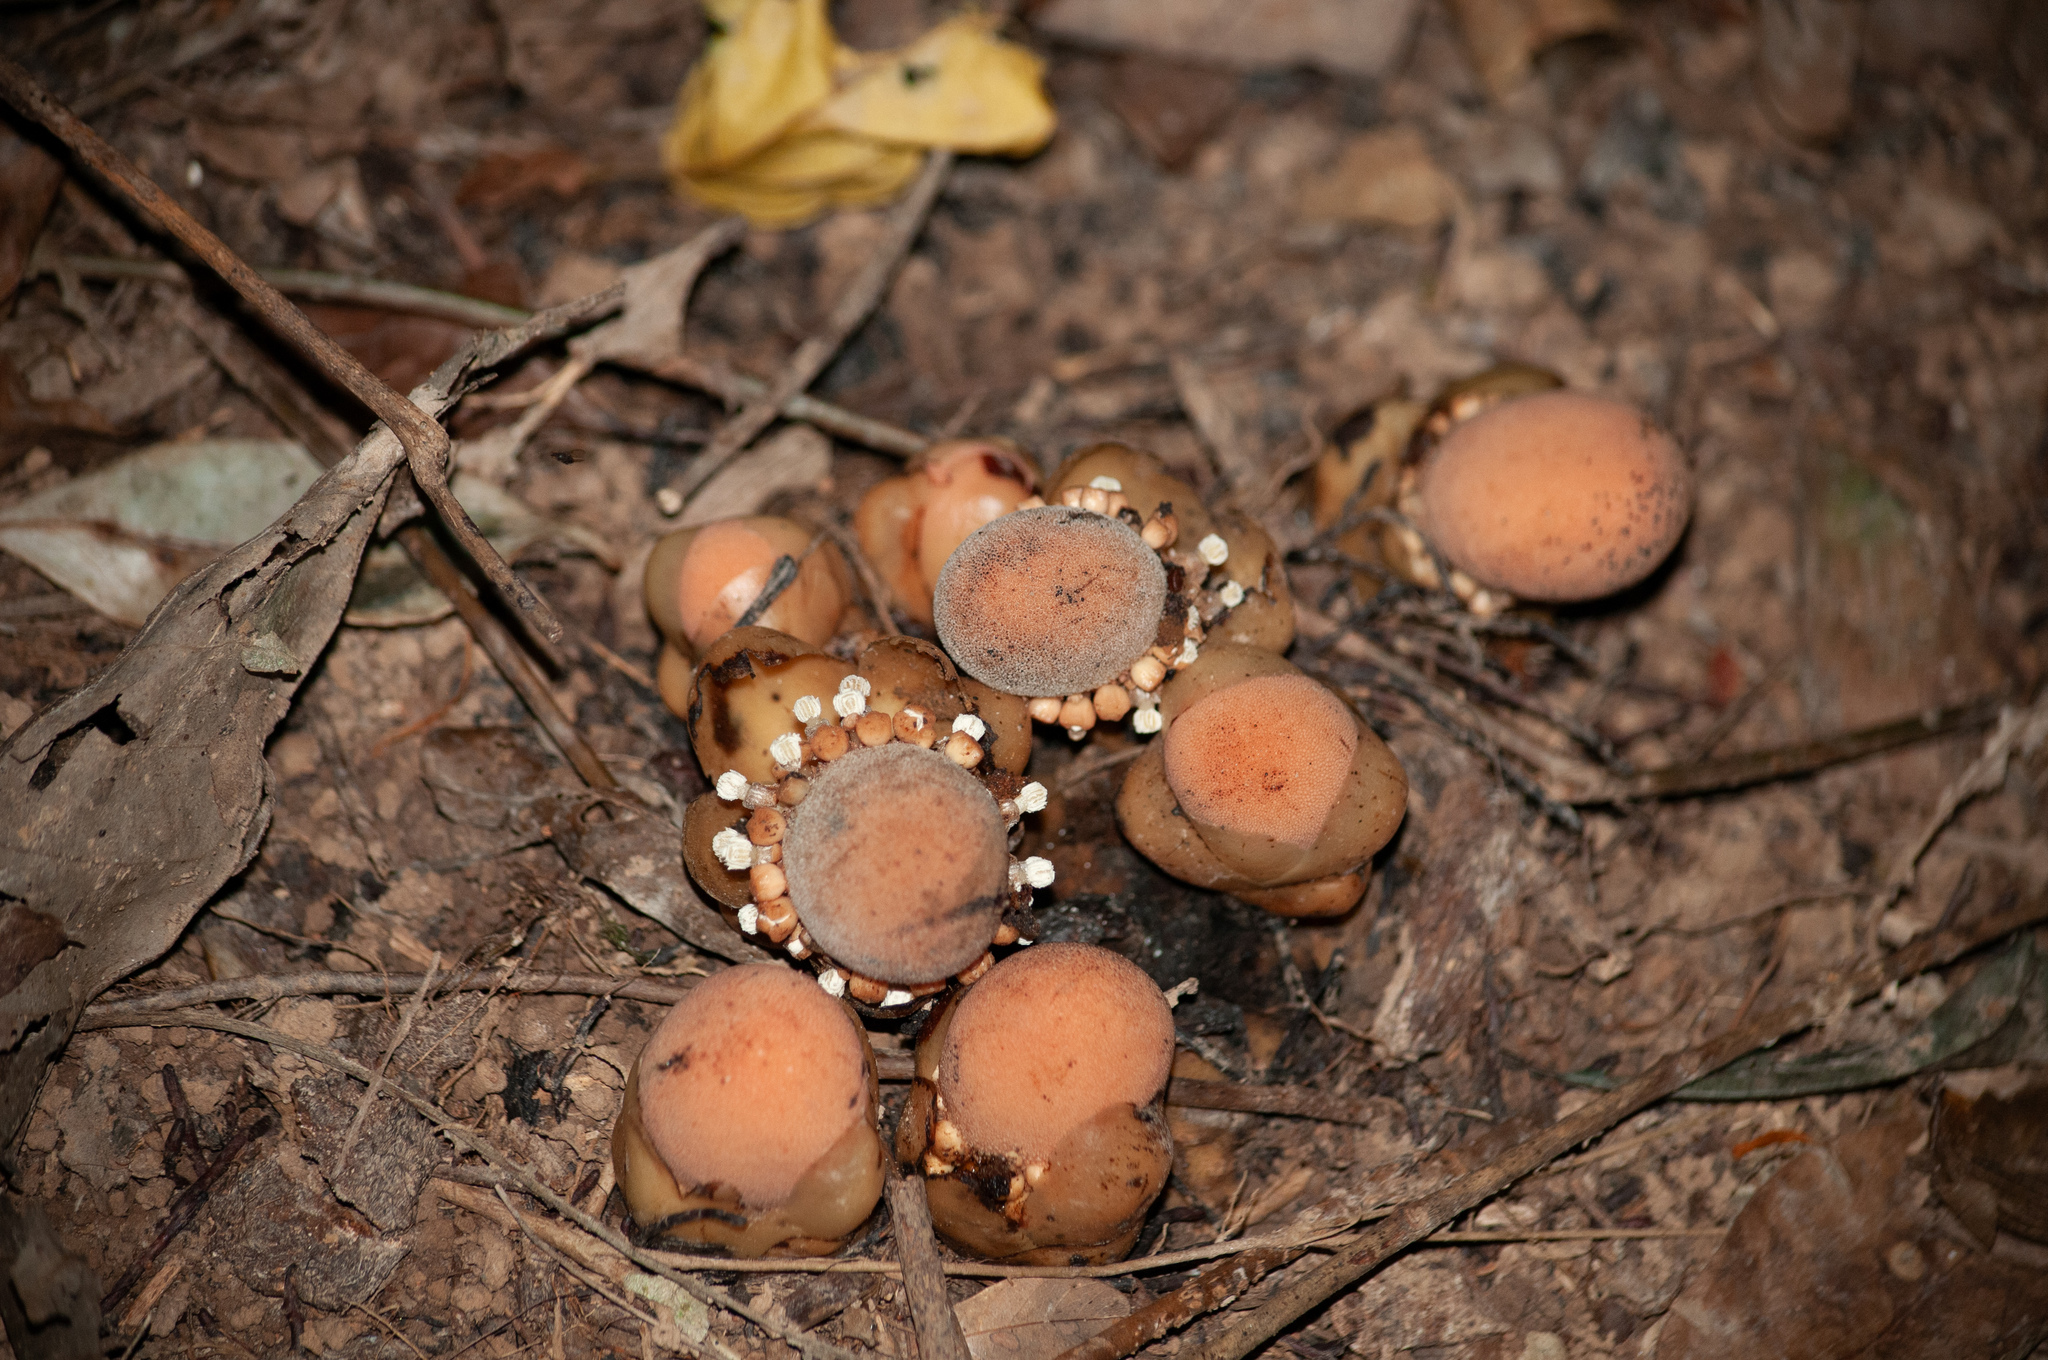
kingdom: Plantae
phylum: Tracheophyta
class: Magnoliopsida
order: Santalales
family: Balanophoraceae
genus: Balanophora
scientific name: Balanophora fungosa
